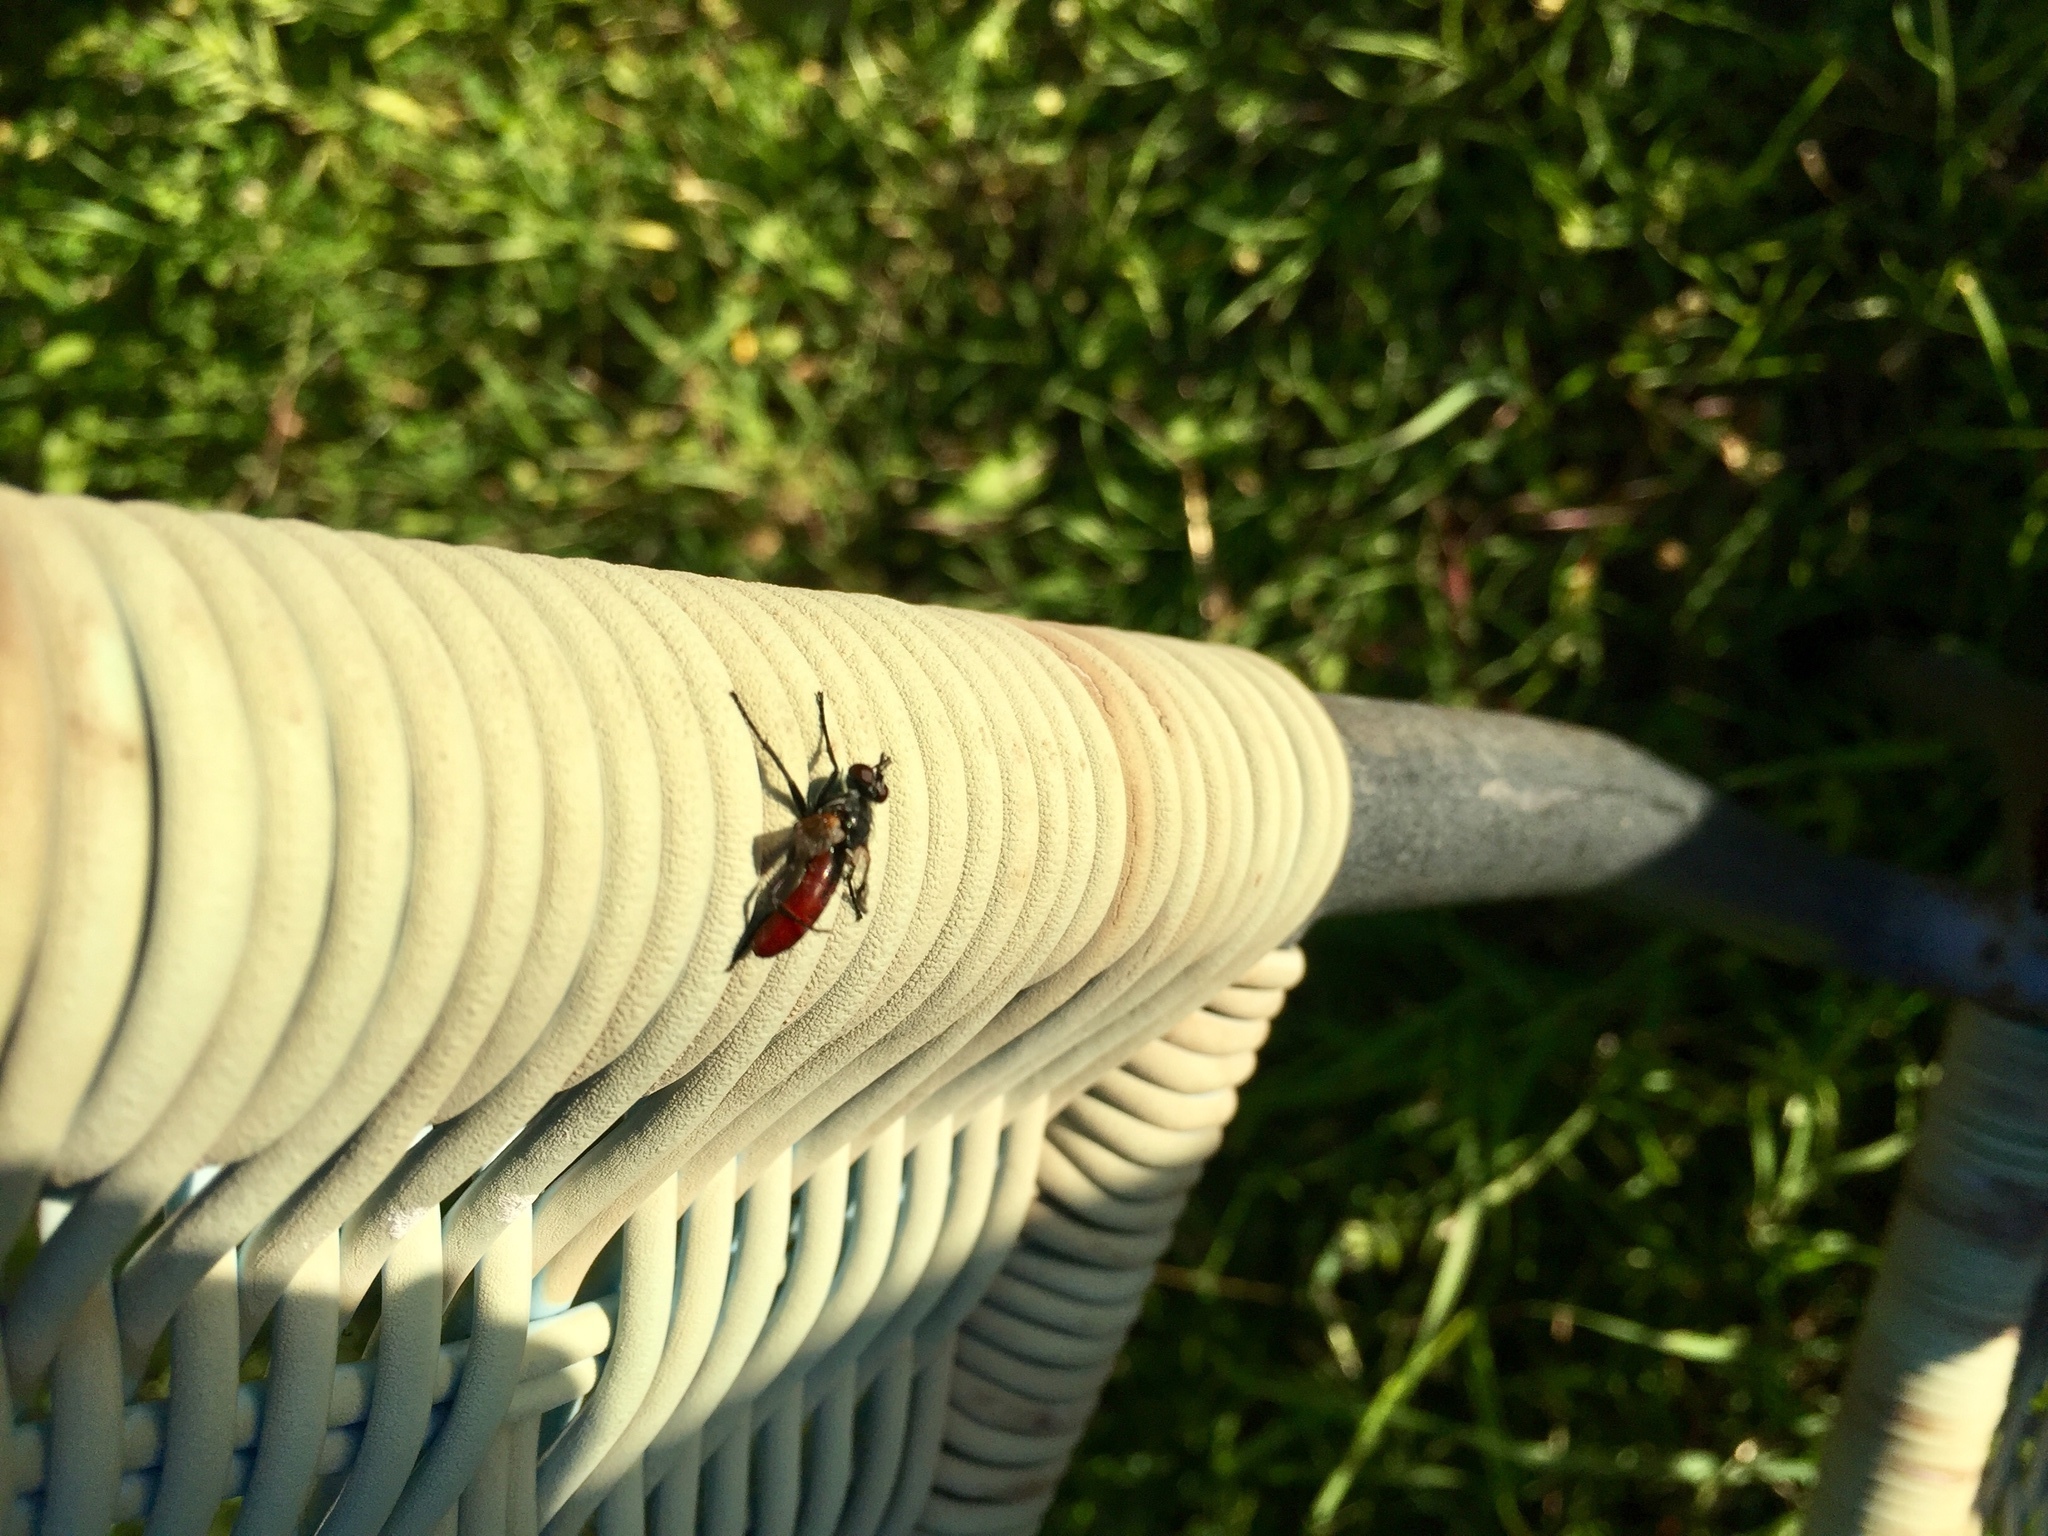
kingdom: Animalia
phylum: Arthropoda
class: Insecta
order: Diptera
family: Tachinidae
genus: Cylindromyia
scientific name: Cylindromyia bicolor
